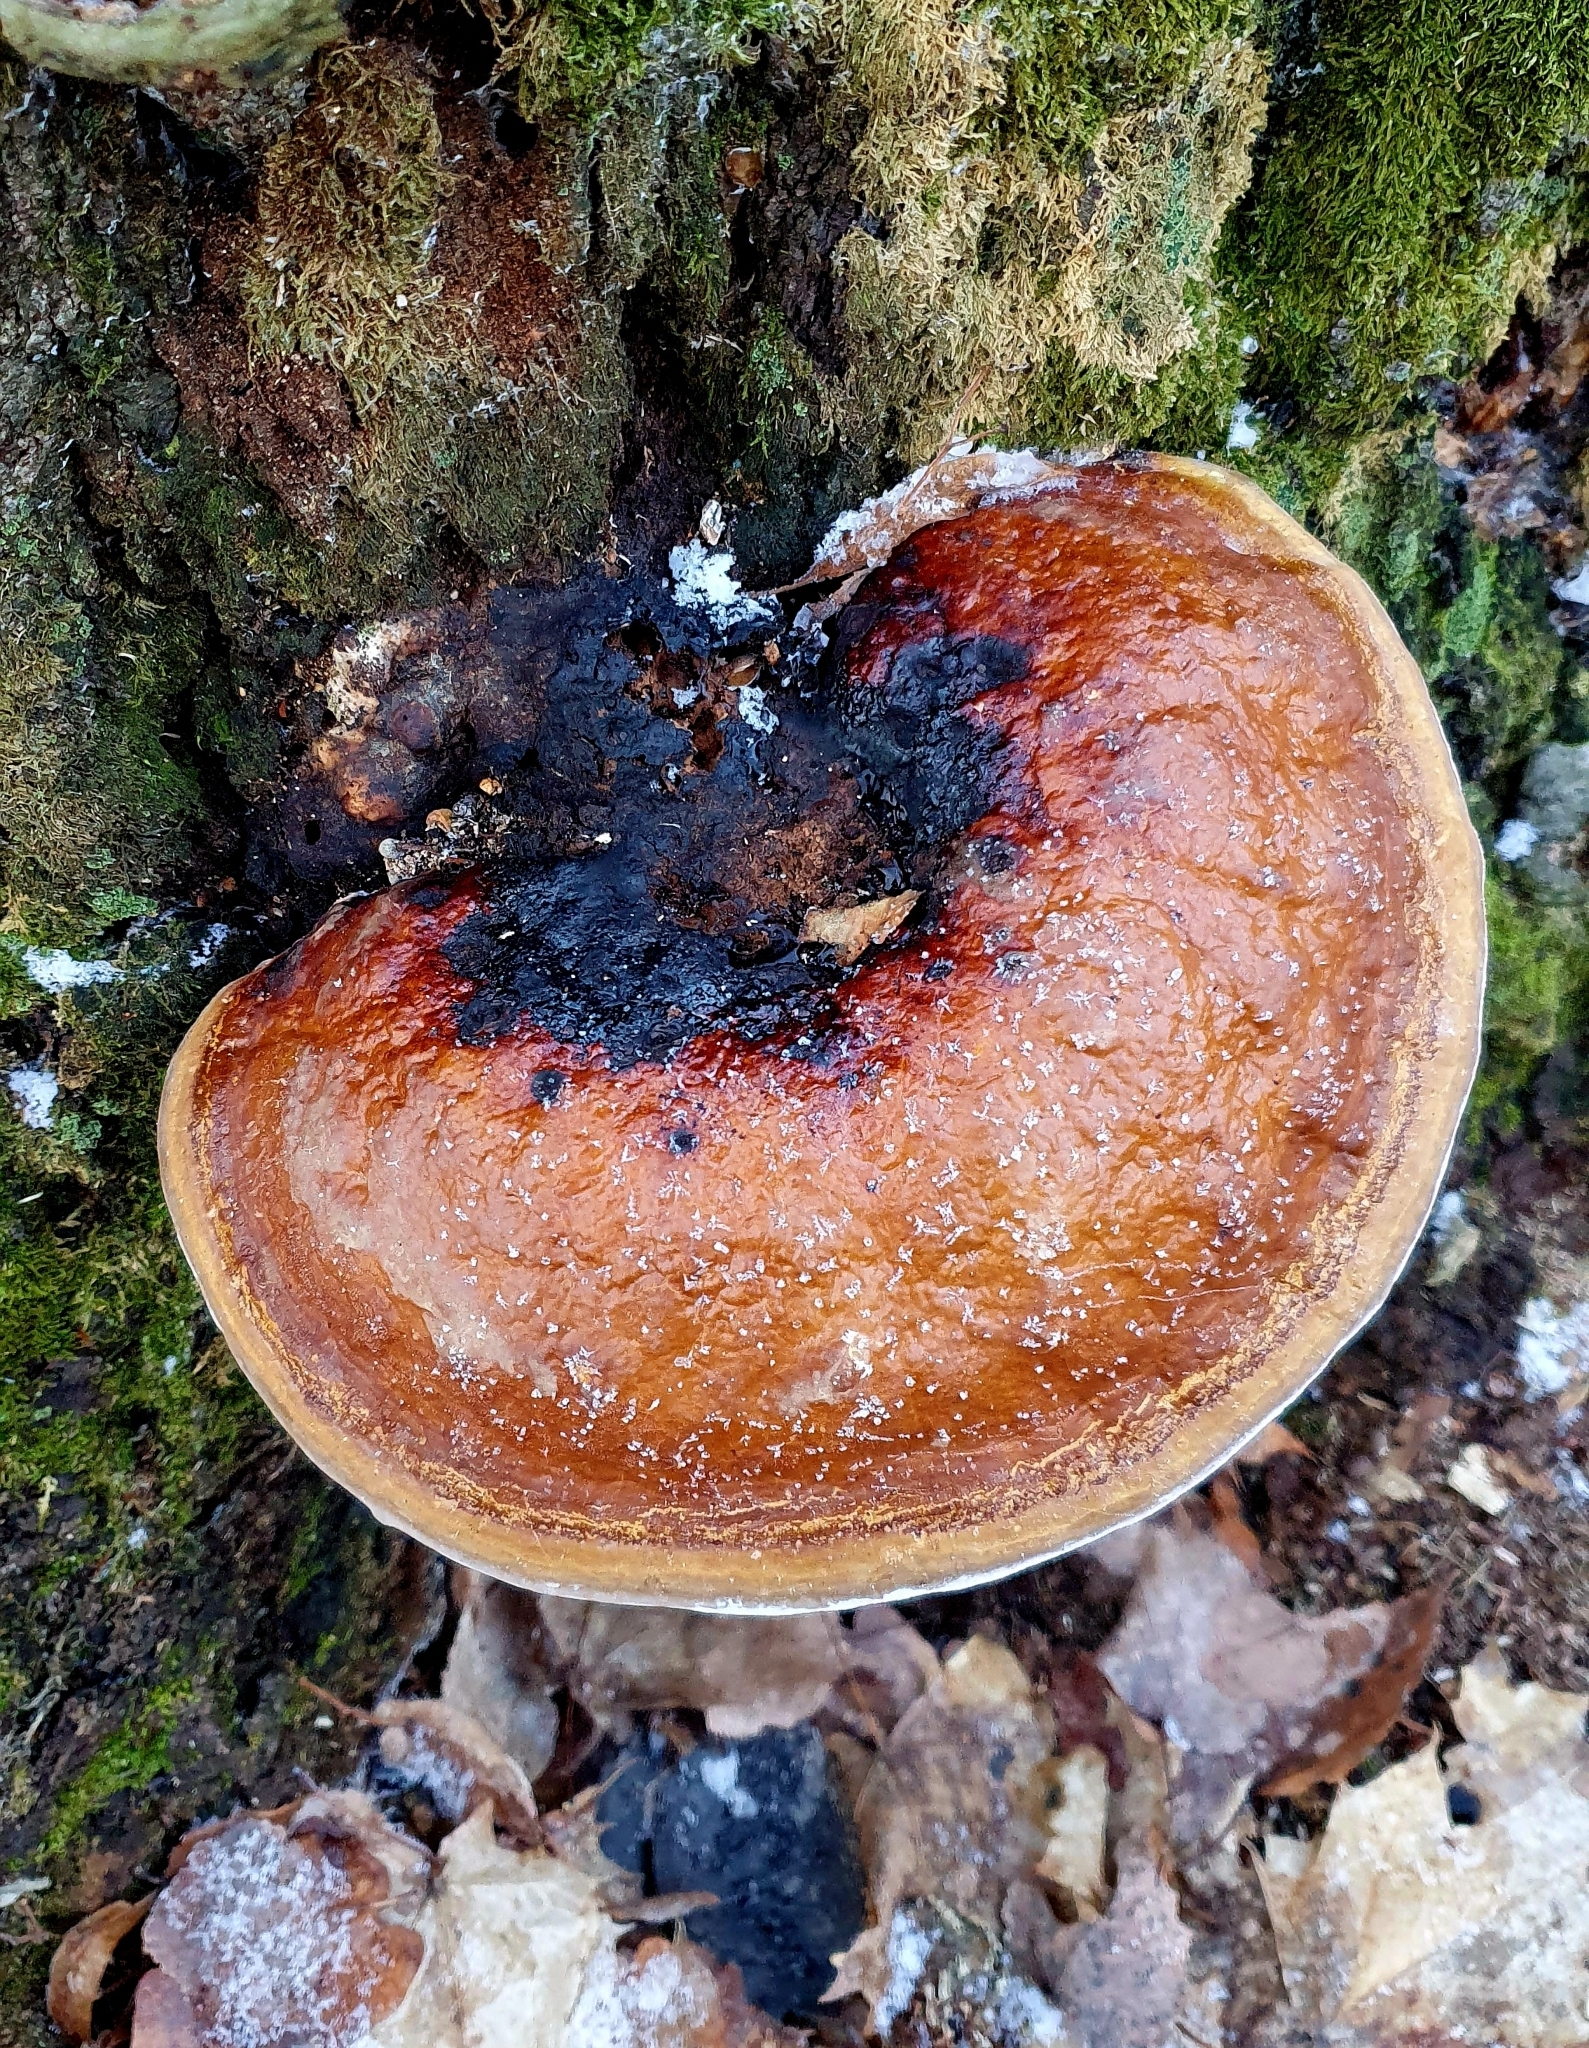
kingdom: Fungi
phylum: Basidiomycota
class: Agaricomycetes
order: Polyporales
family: Fomitopsidaceae
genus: Fomitopsis
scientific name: Fomitopsis pinicola
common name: Red-belted bracket
